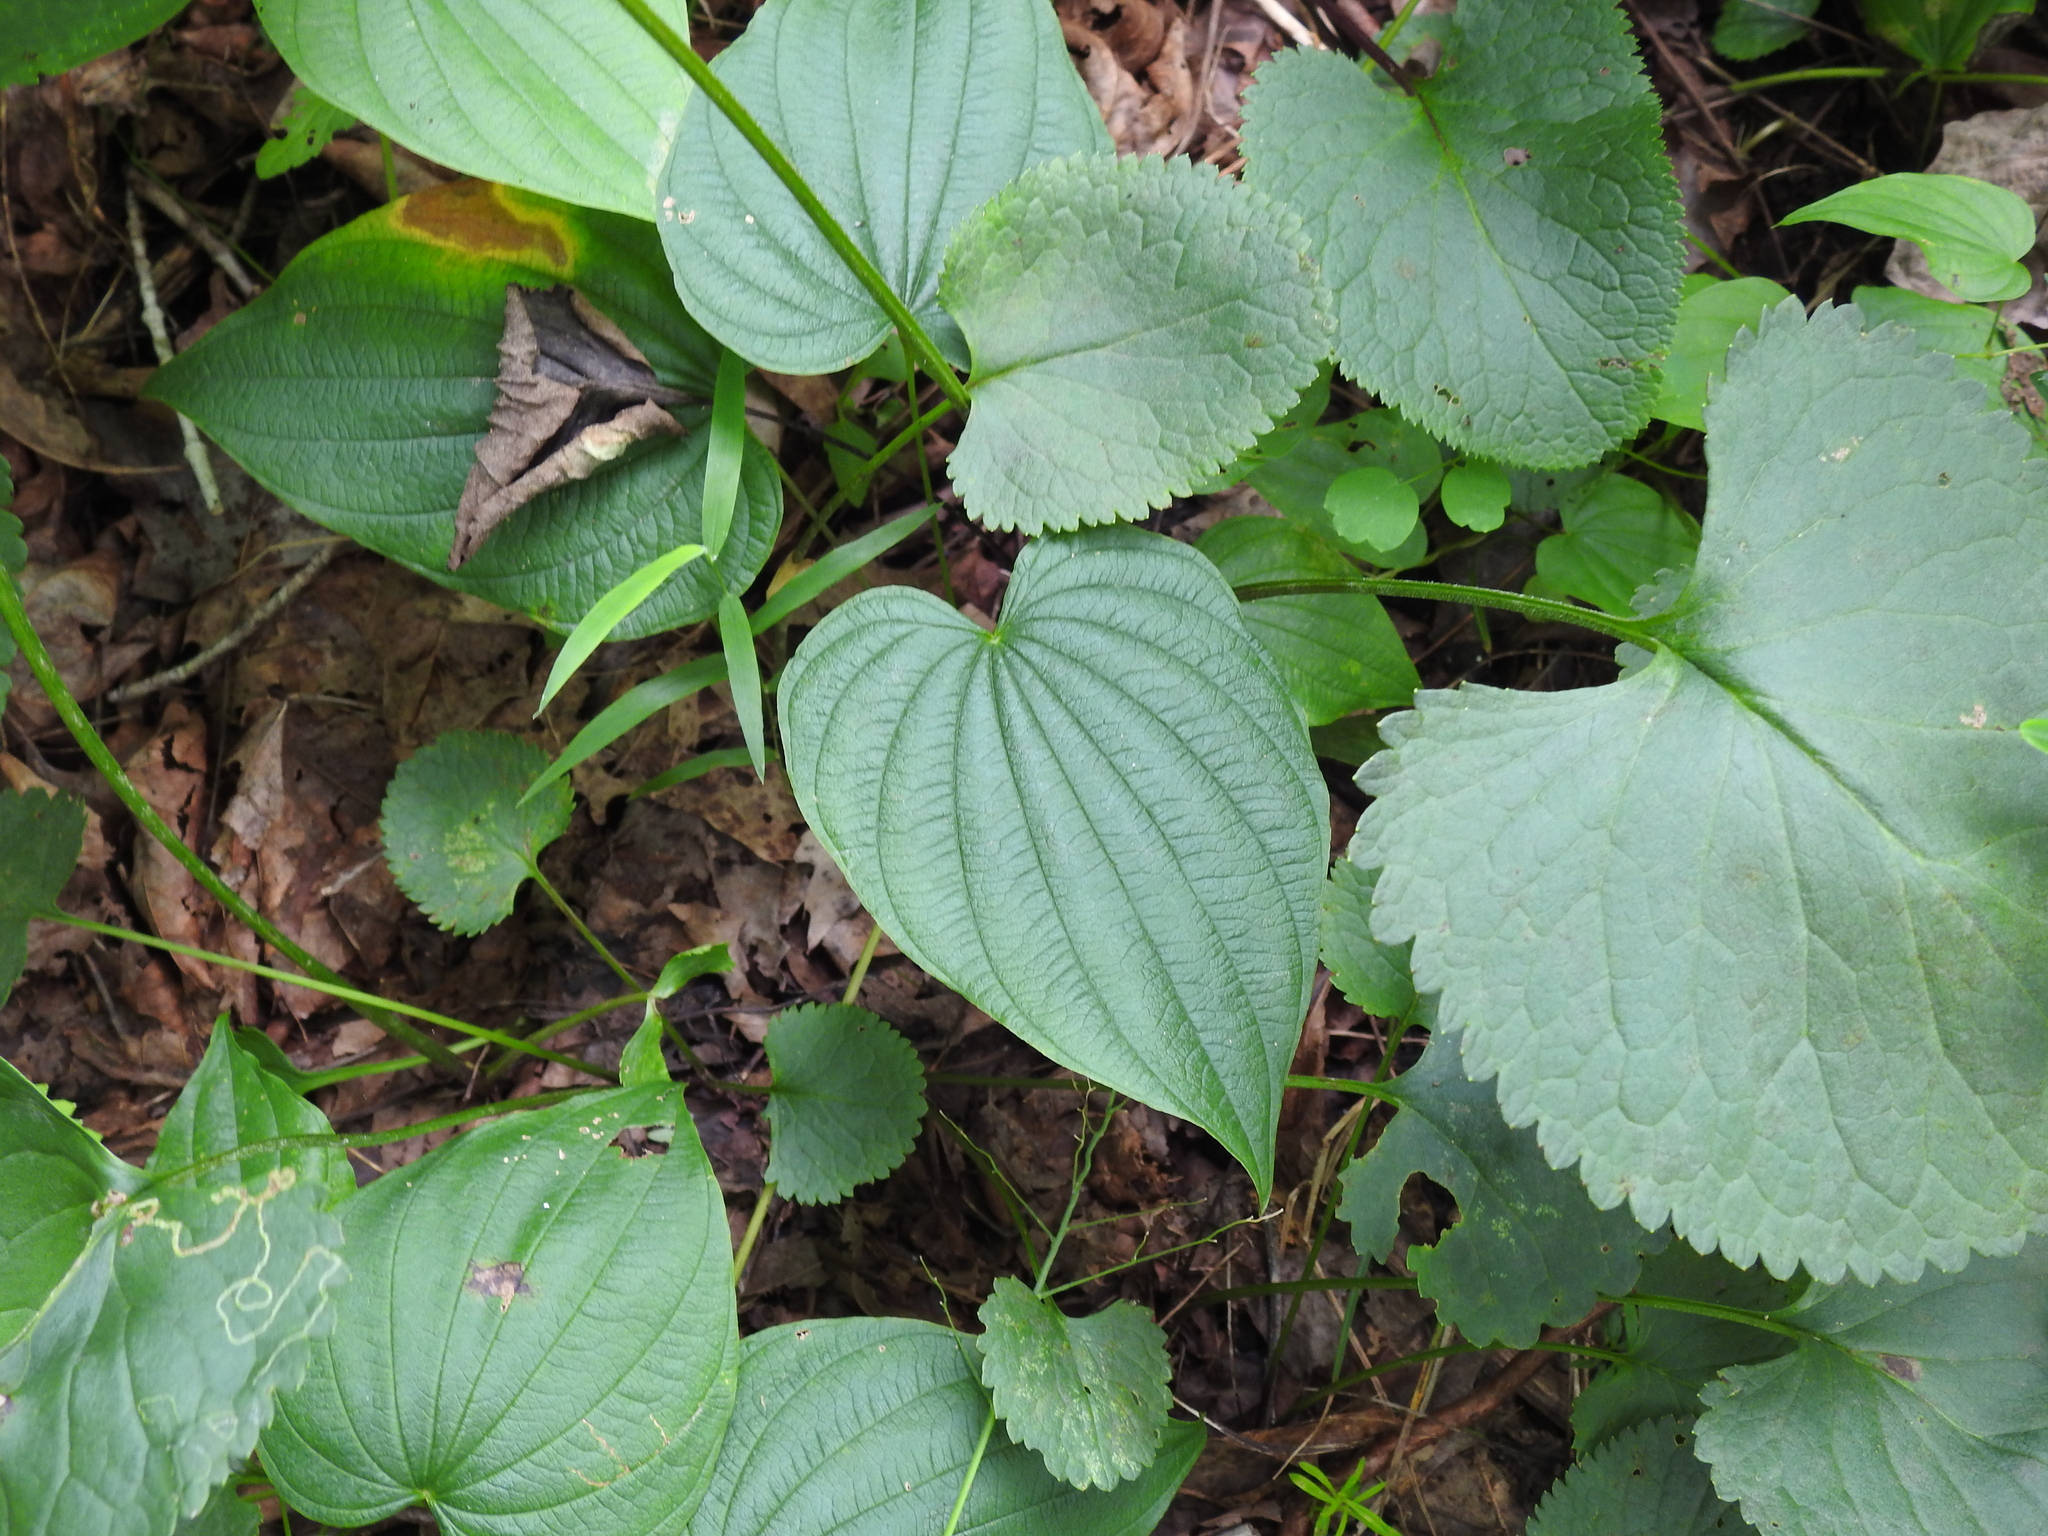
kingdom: Plantae
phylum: Tracheophyta
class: Liliopsida
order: Dioscoreales
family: Dioscoreaceae
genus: Dioscorea
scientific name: Dioscorea villosa
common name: Wild yam
